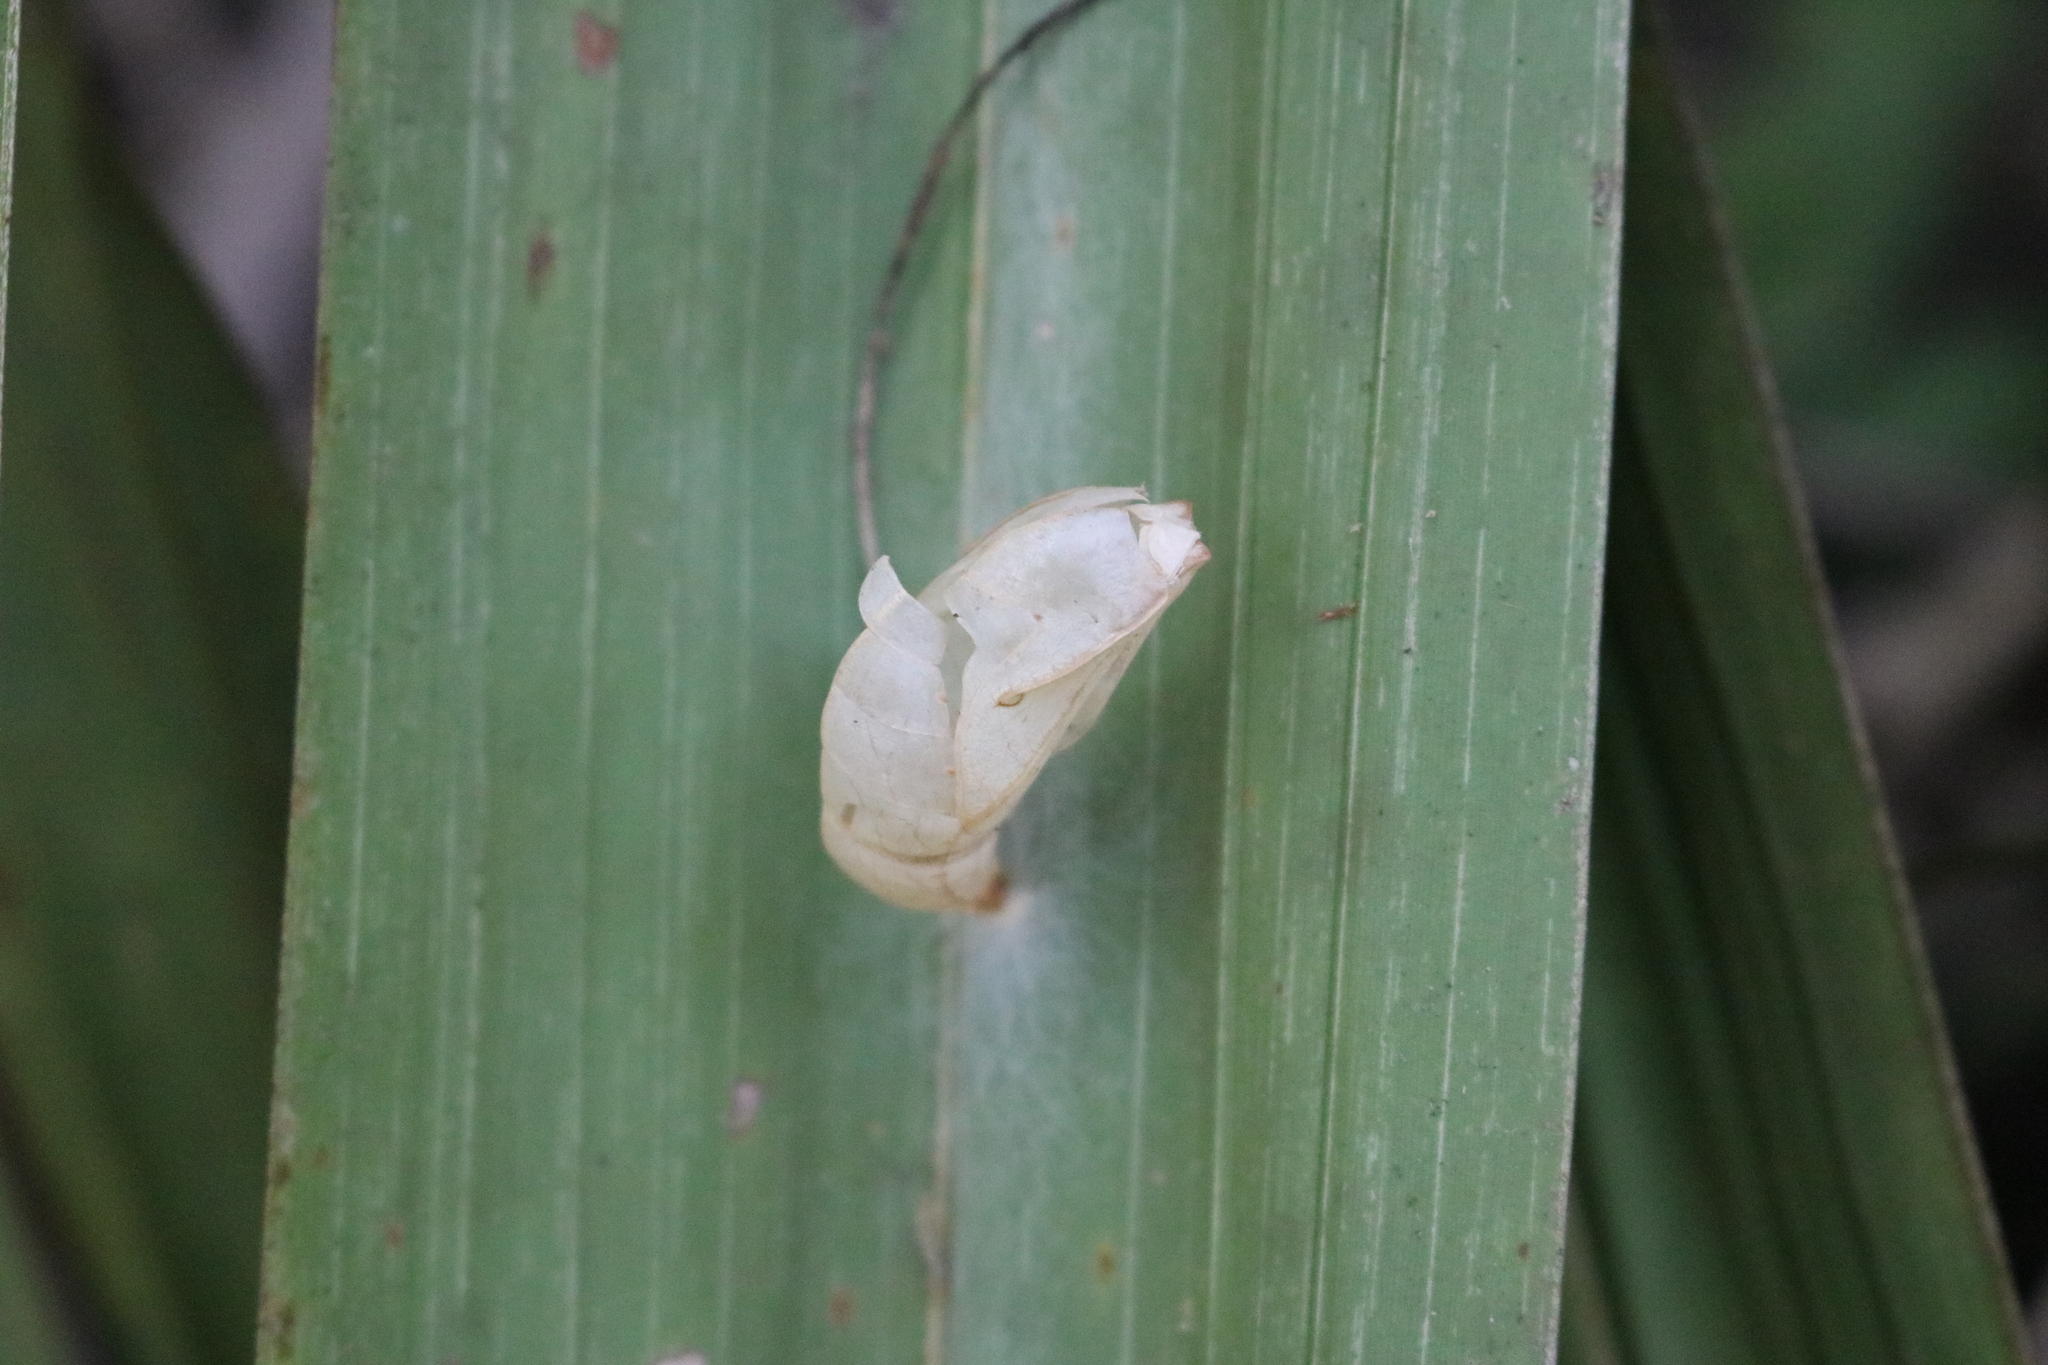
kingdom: Animalia
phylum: Arthropoda
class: Insecta
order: Lepidoptera
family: Nymphalidae
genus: Opsiphanes
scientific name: Opsiphanes cassina
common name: Split-banded owl-butterfly
